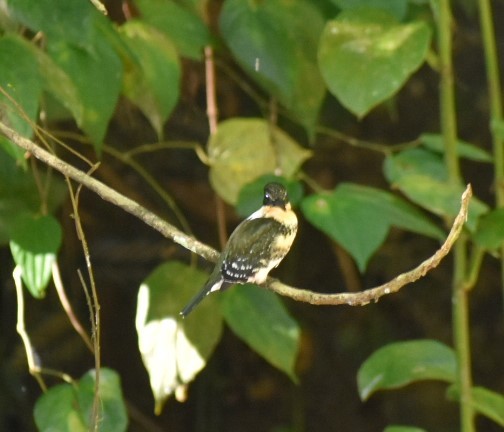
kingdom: Animalia
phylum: Chordata
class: Aves
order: Coraciiformes
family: Alcedinidae
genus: Chloroceryle
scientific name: Chloroceryle americana
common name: Green kingfisher
